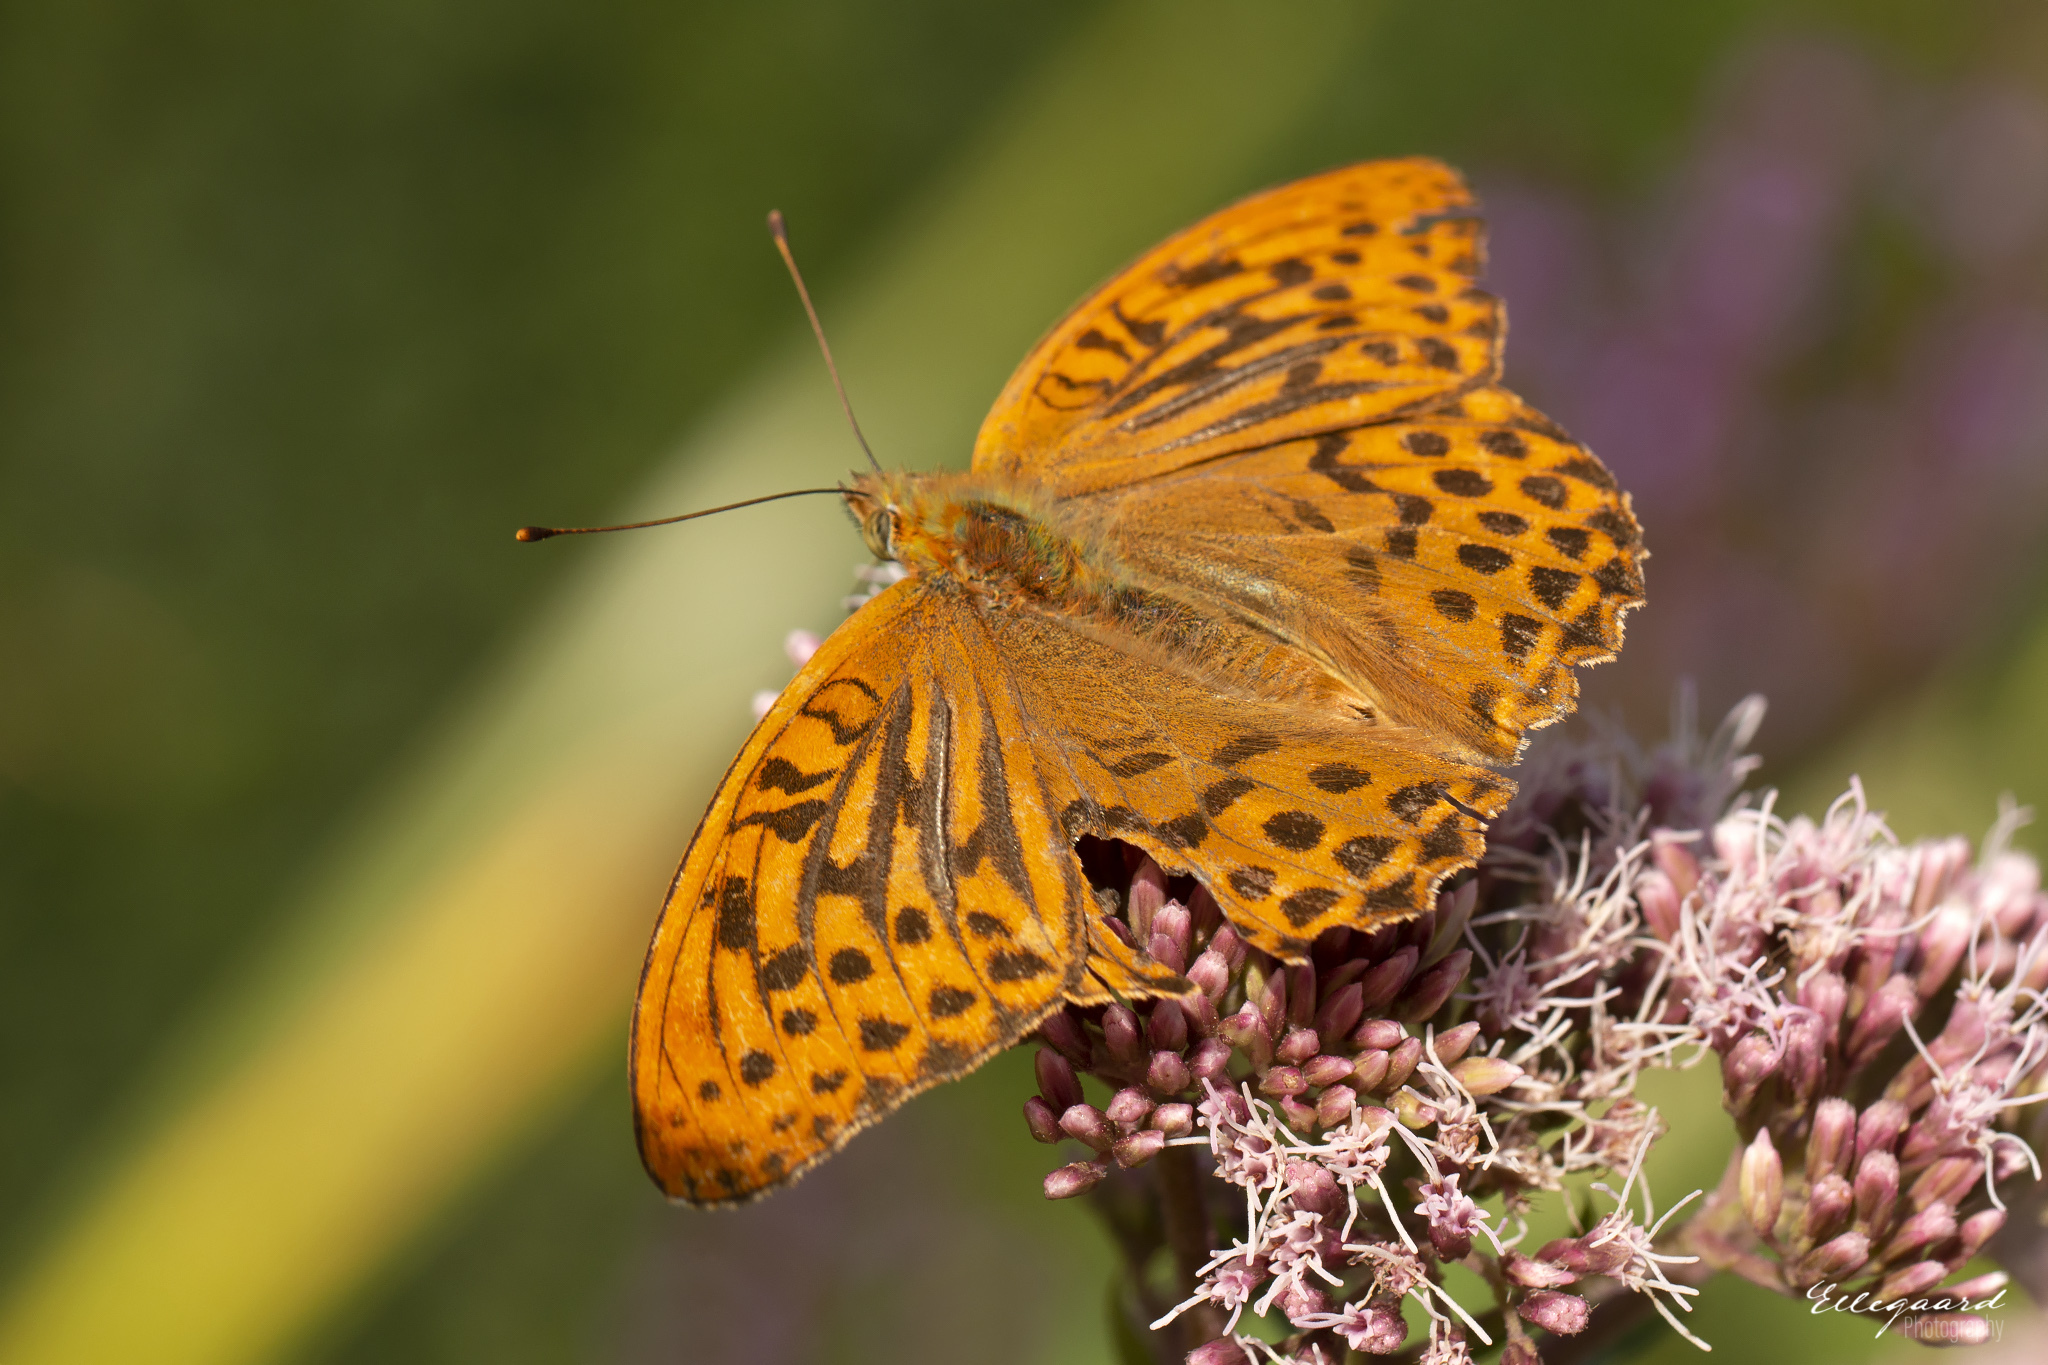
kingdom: Animalia
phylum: Arthropoda
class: Insecta
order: Lepidoptera
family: Nymphalidae
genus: Argynnis
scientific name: Argynnis paphia
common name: Silver-washed fritillary
